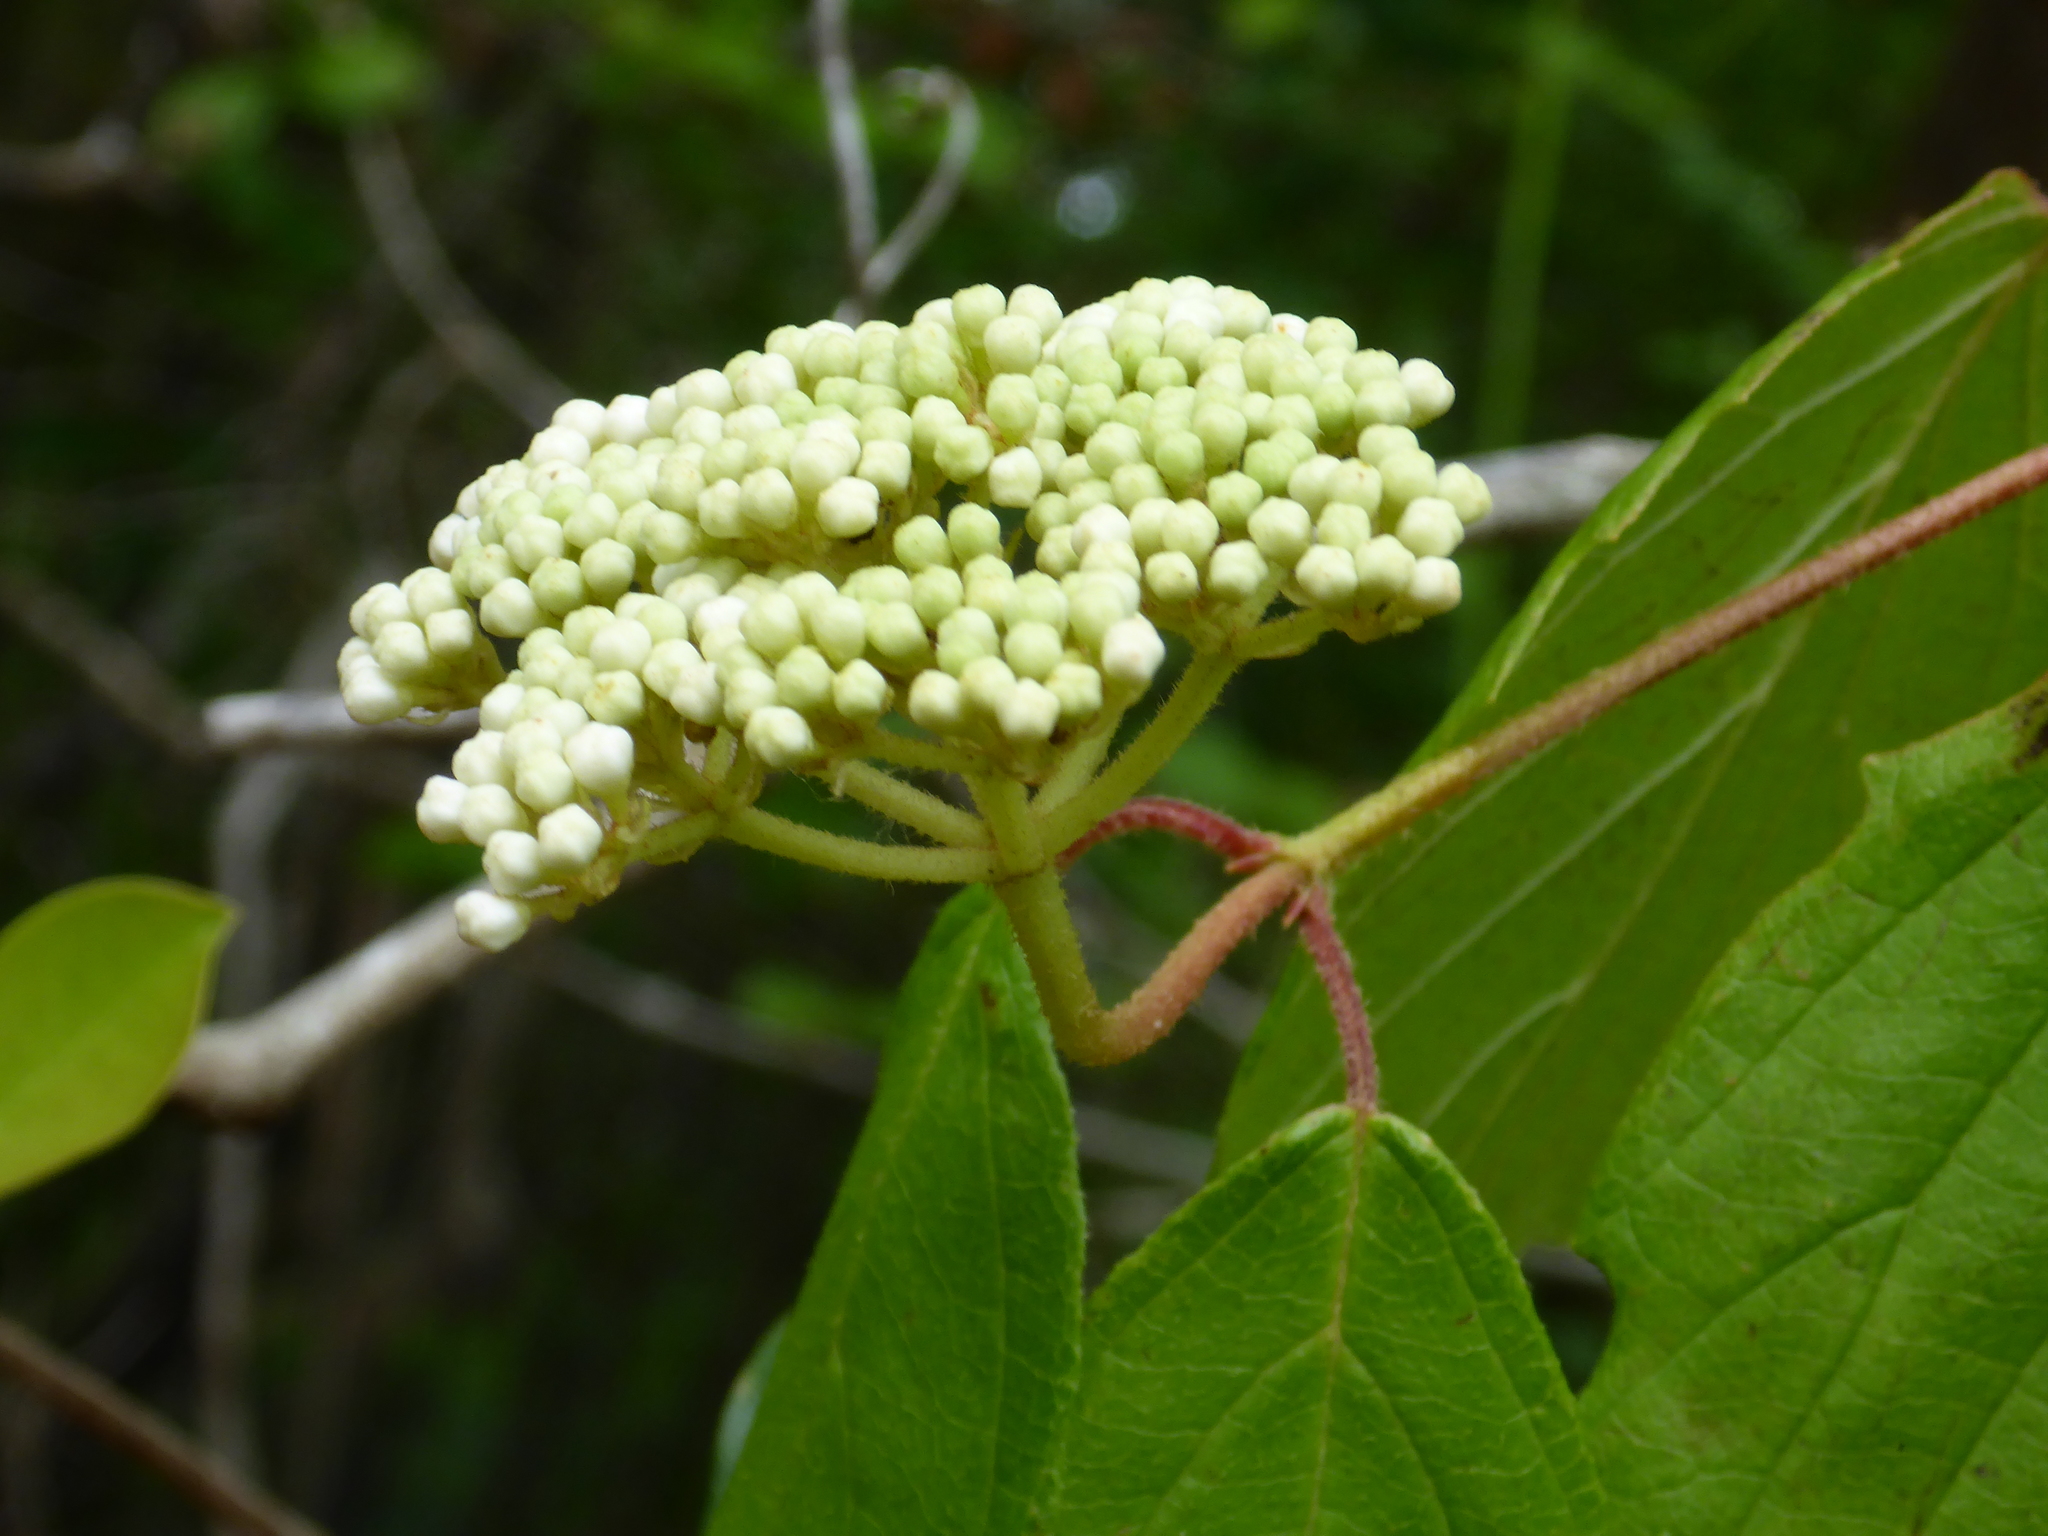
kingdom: Plantae
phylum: Tracheophyta
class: Magnoliopsida
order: Dipsacales
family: Viburnaceae
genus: Viburnum
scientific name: Viburnum scabrellum
